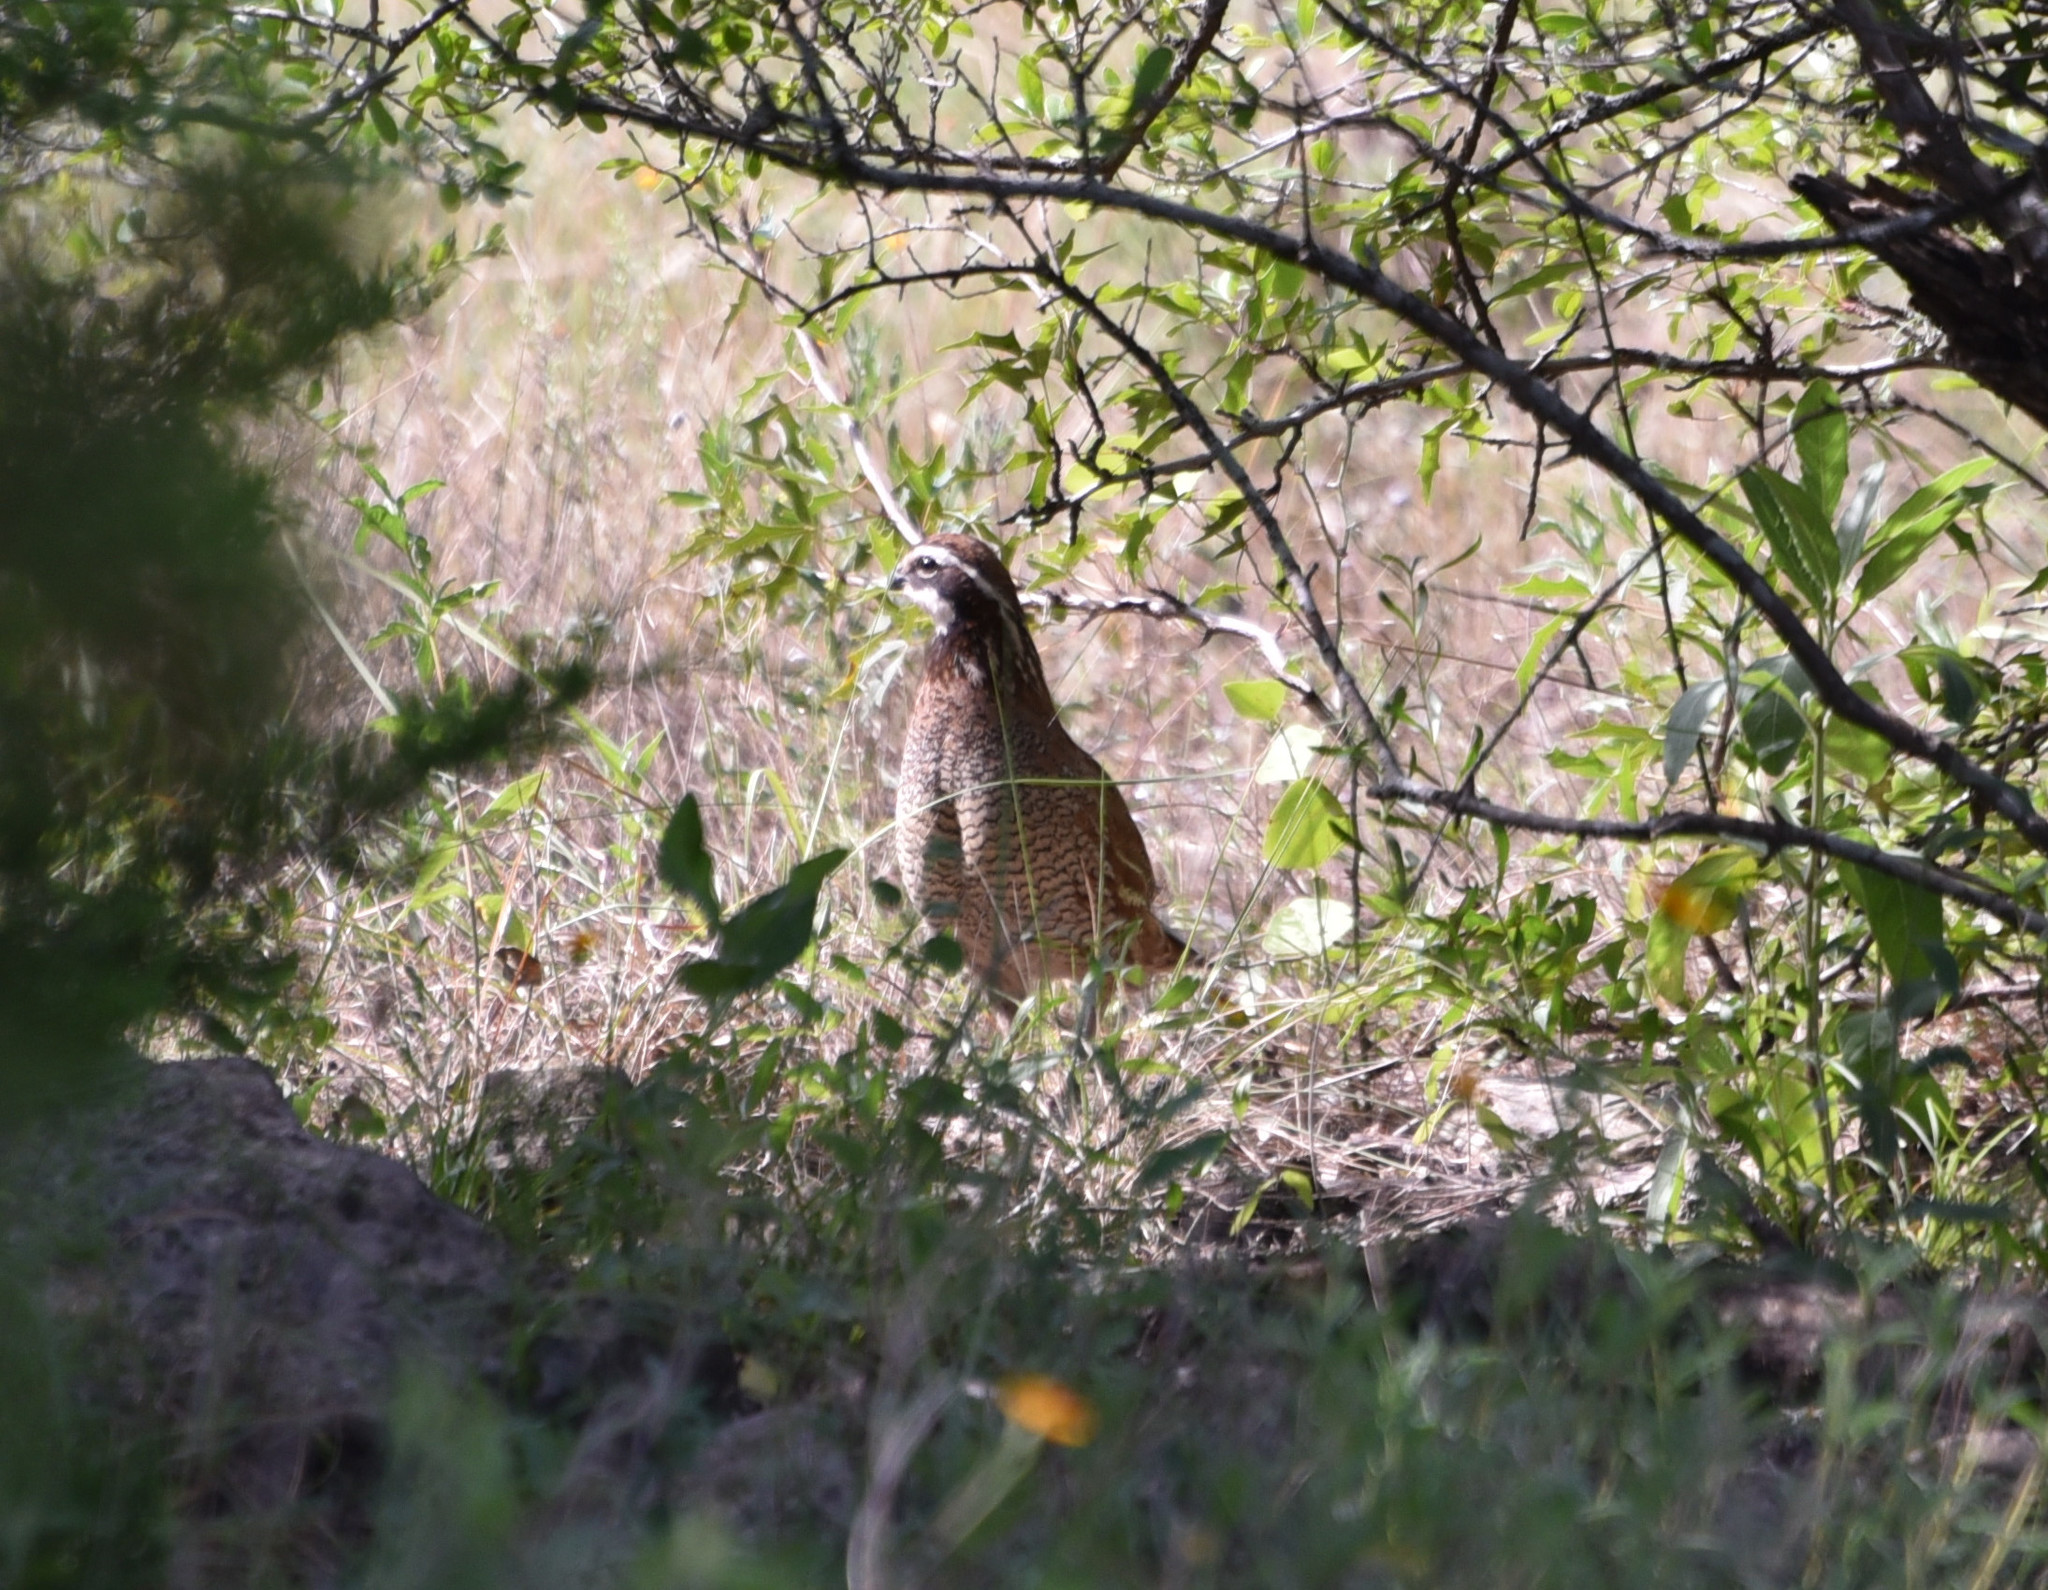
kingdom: Animalia
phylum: Chordata
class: Aves
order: Galliformes
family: Odontophoridae
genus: Colinus
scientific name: Colinus virginianus
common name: Northern bobwhite
